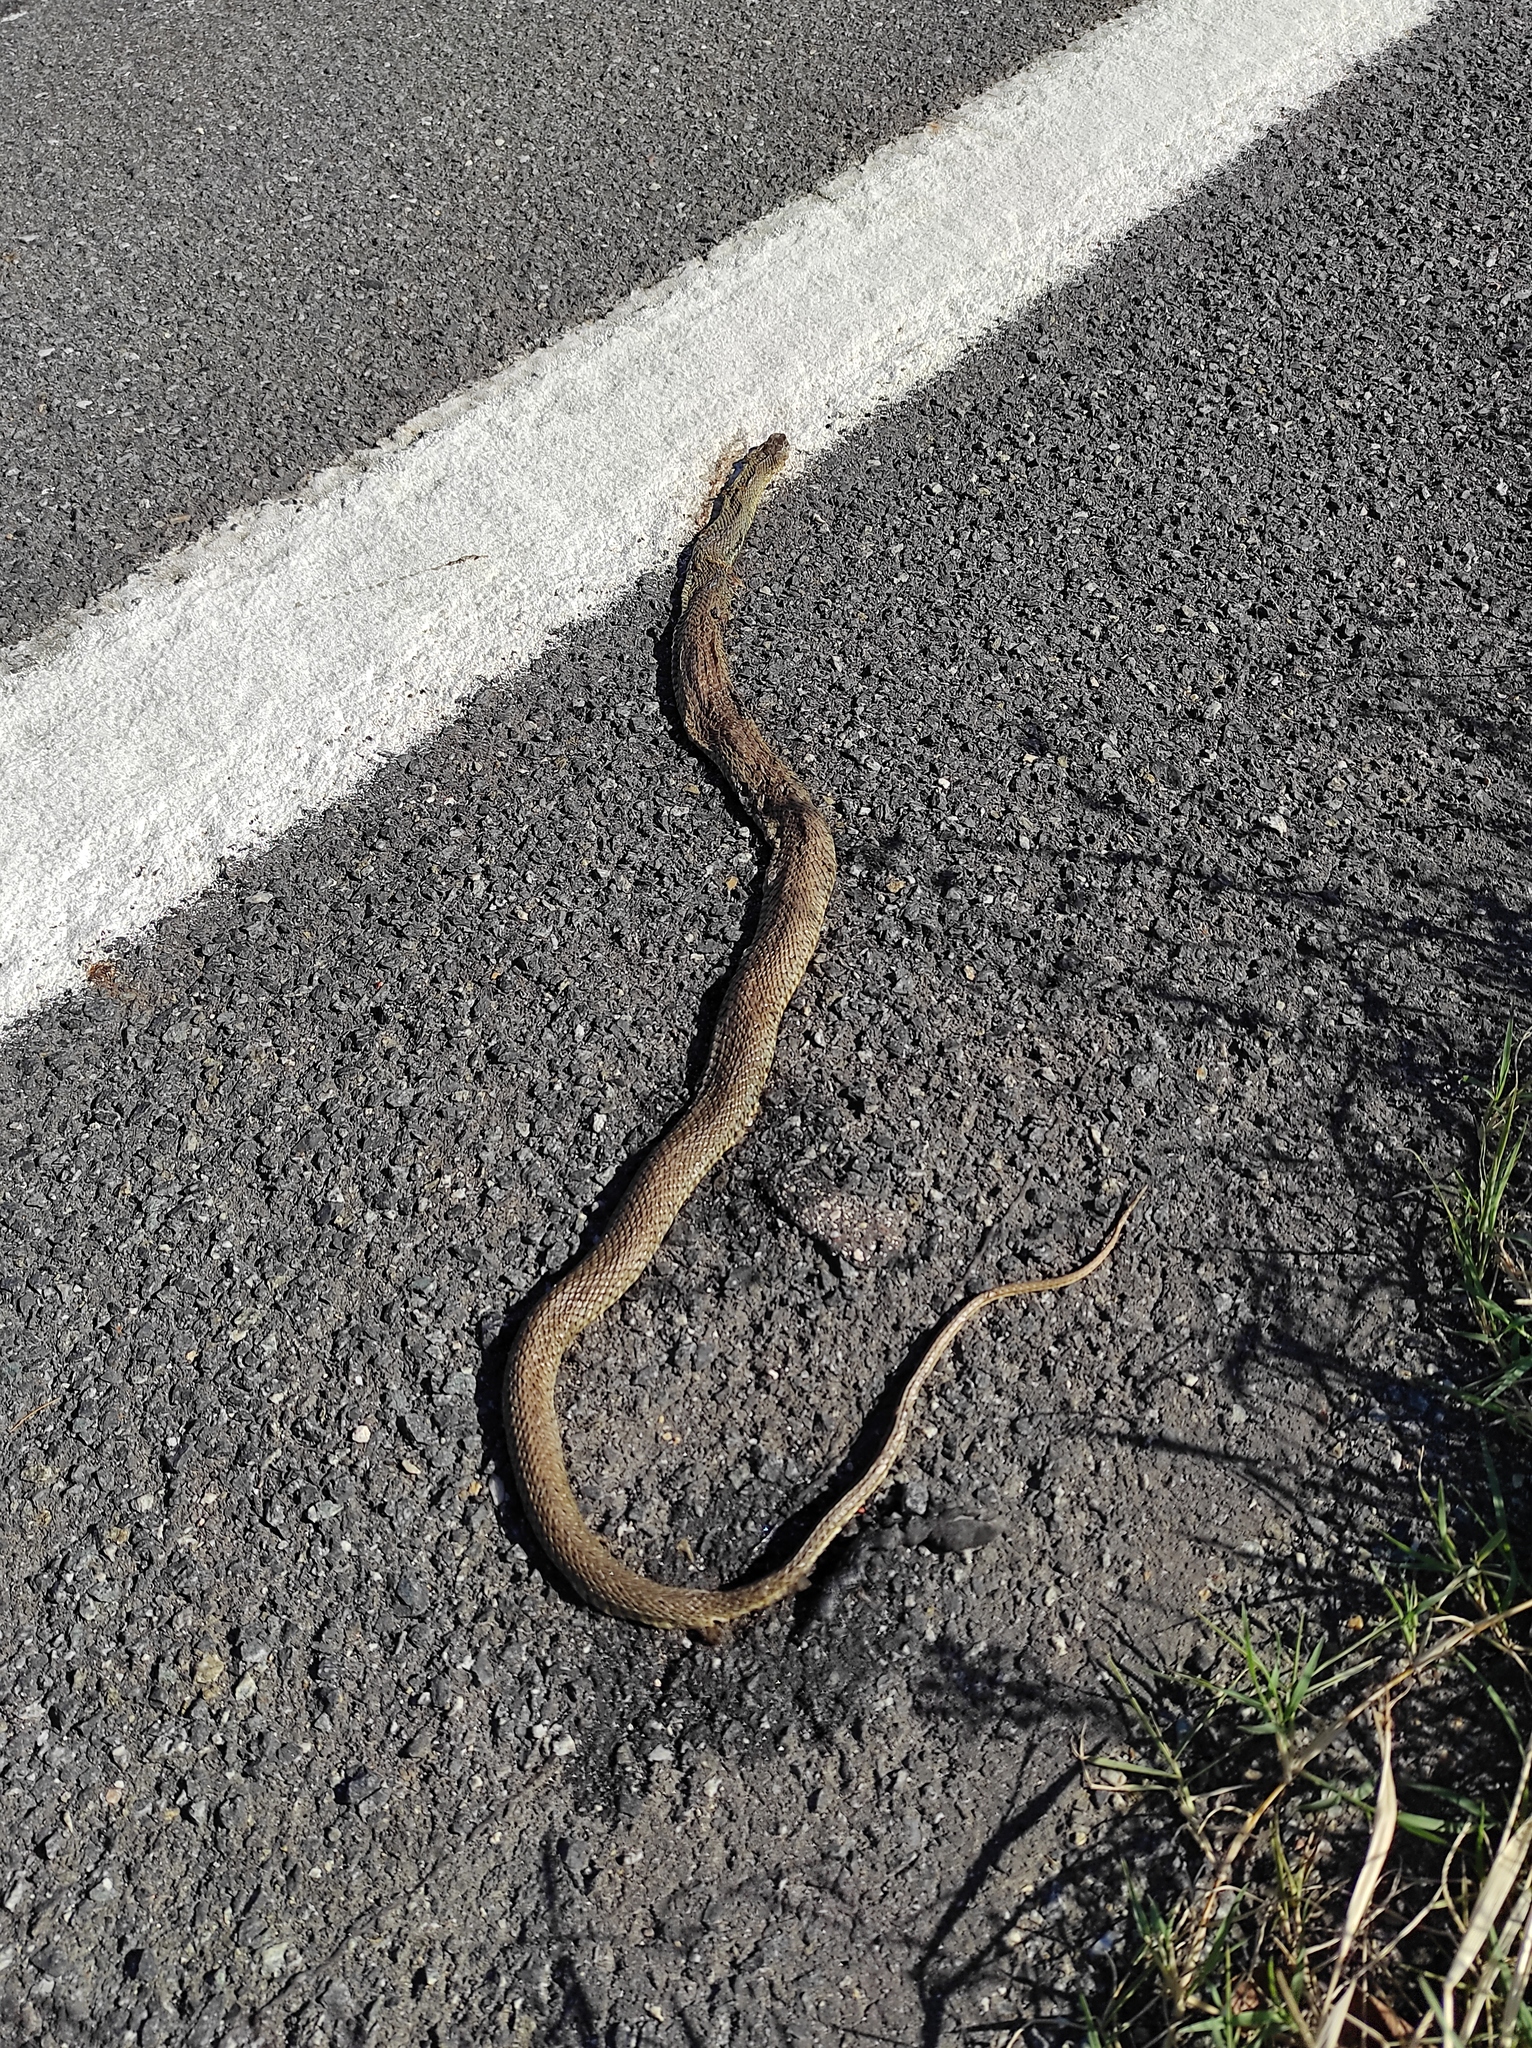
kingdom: Animalia
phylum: Chordata
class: Squamata
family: Psammophiidae
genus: Malpolon
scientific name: Malpolon monspessulanus
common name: Montpellier snake
